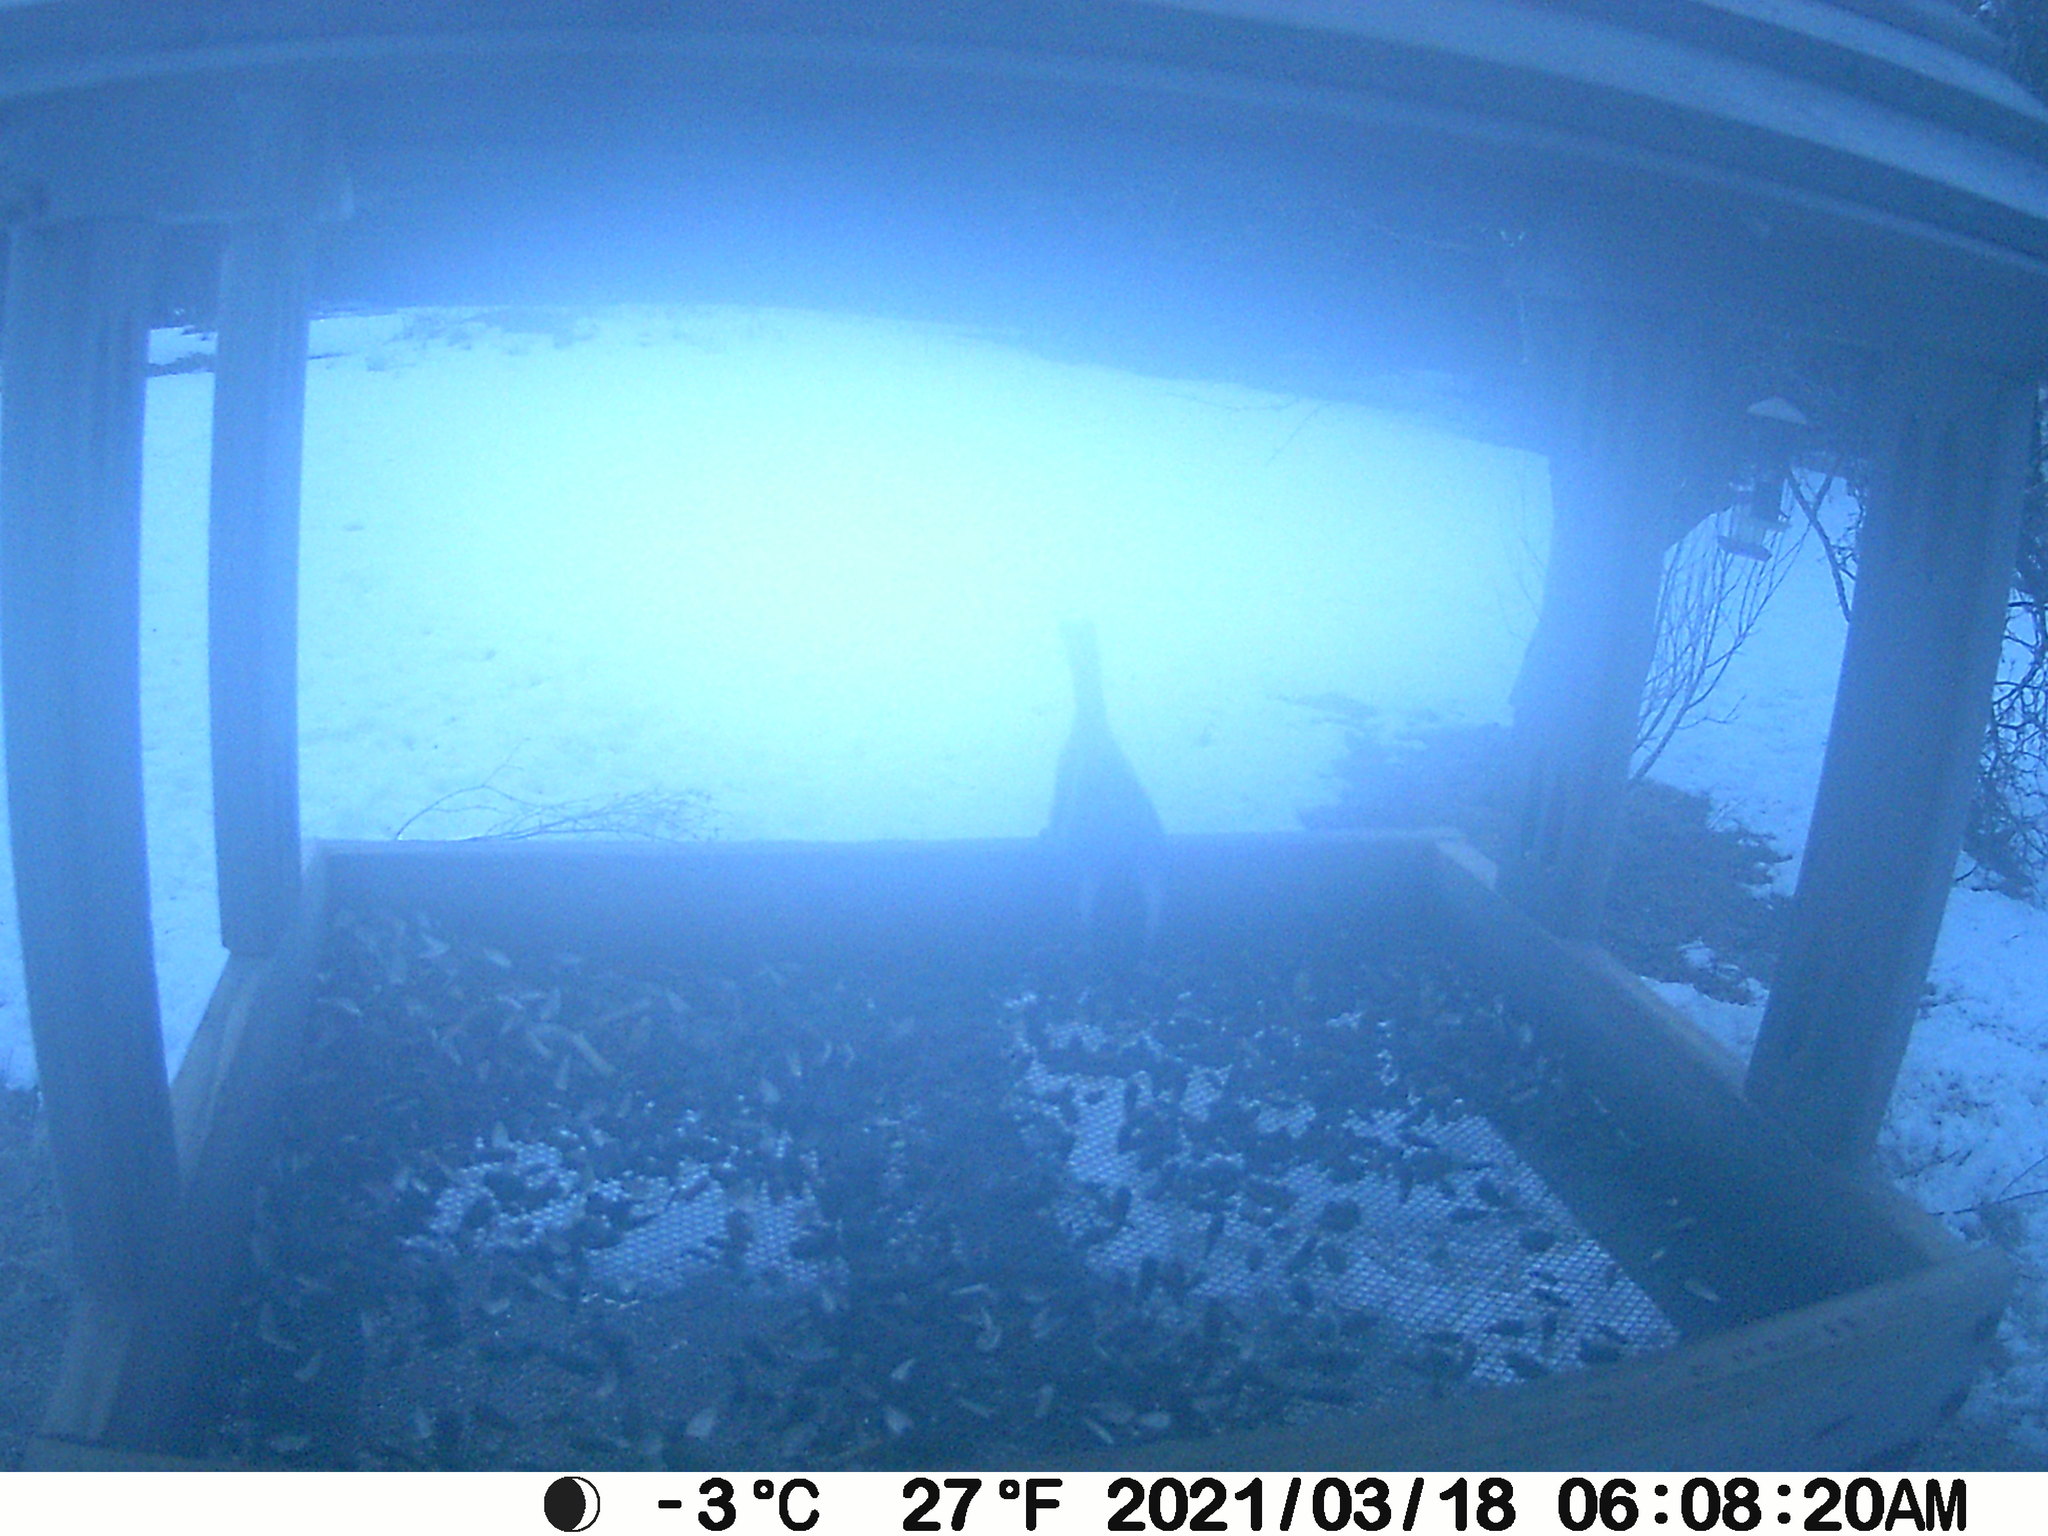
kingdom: Animalia
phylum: Chordata
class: Aves
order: Passeriformes
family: Paridae
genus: Poecile
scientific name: Poecile atricapillus
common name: Black-capped chickadee
